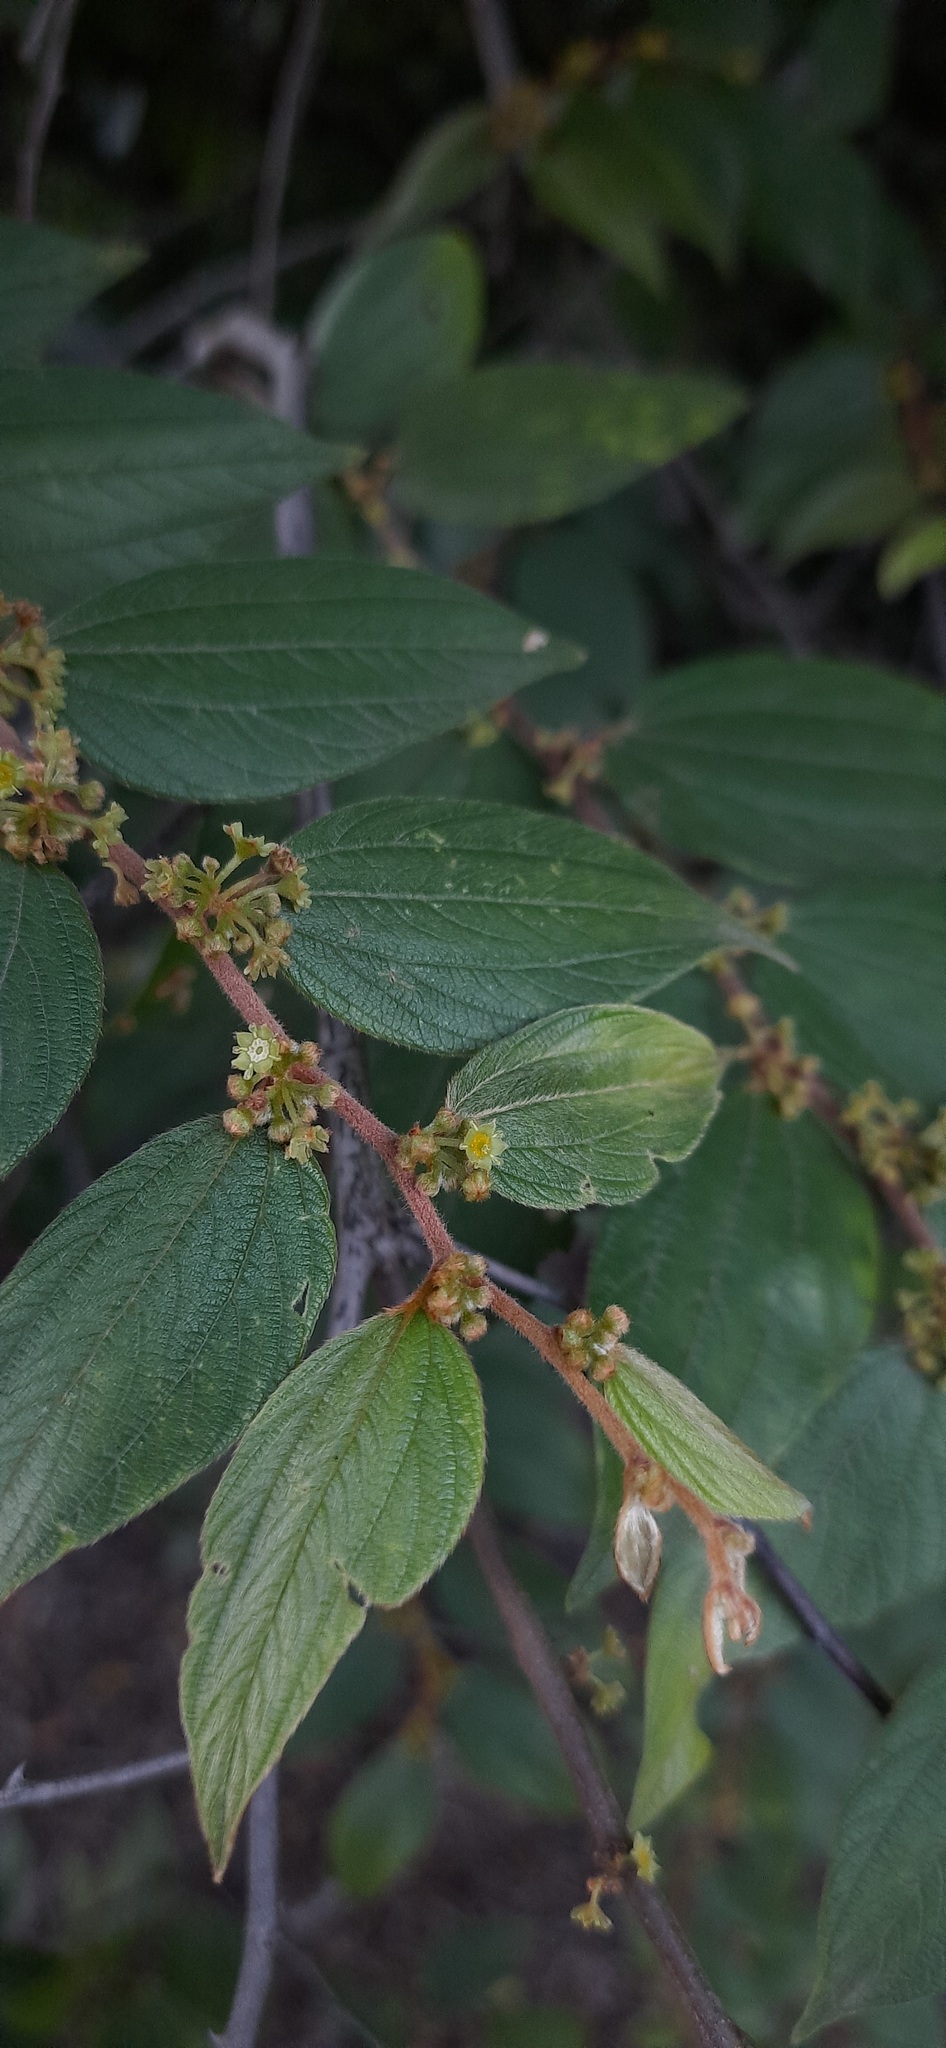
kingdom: Plantae
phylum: Tracheophyta
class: Magnoliopsida
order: Rosales
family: Rhamnaceae
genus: Ziziphus
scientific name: Ziziphus oenopolia
